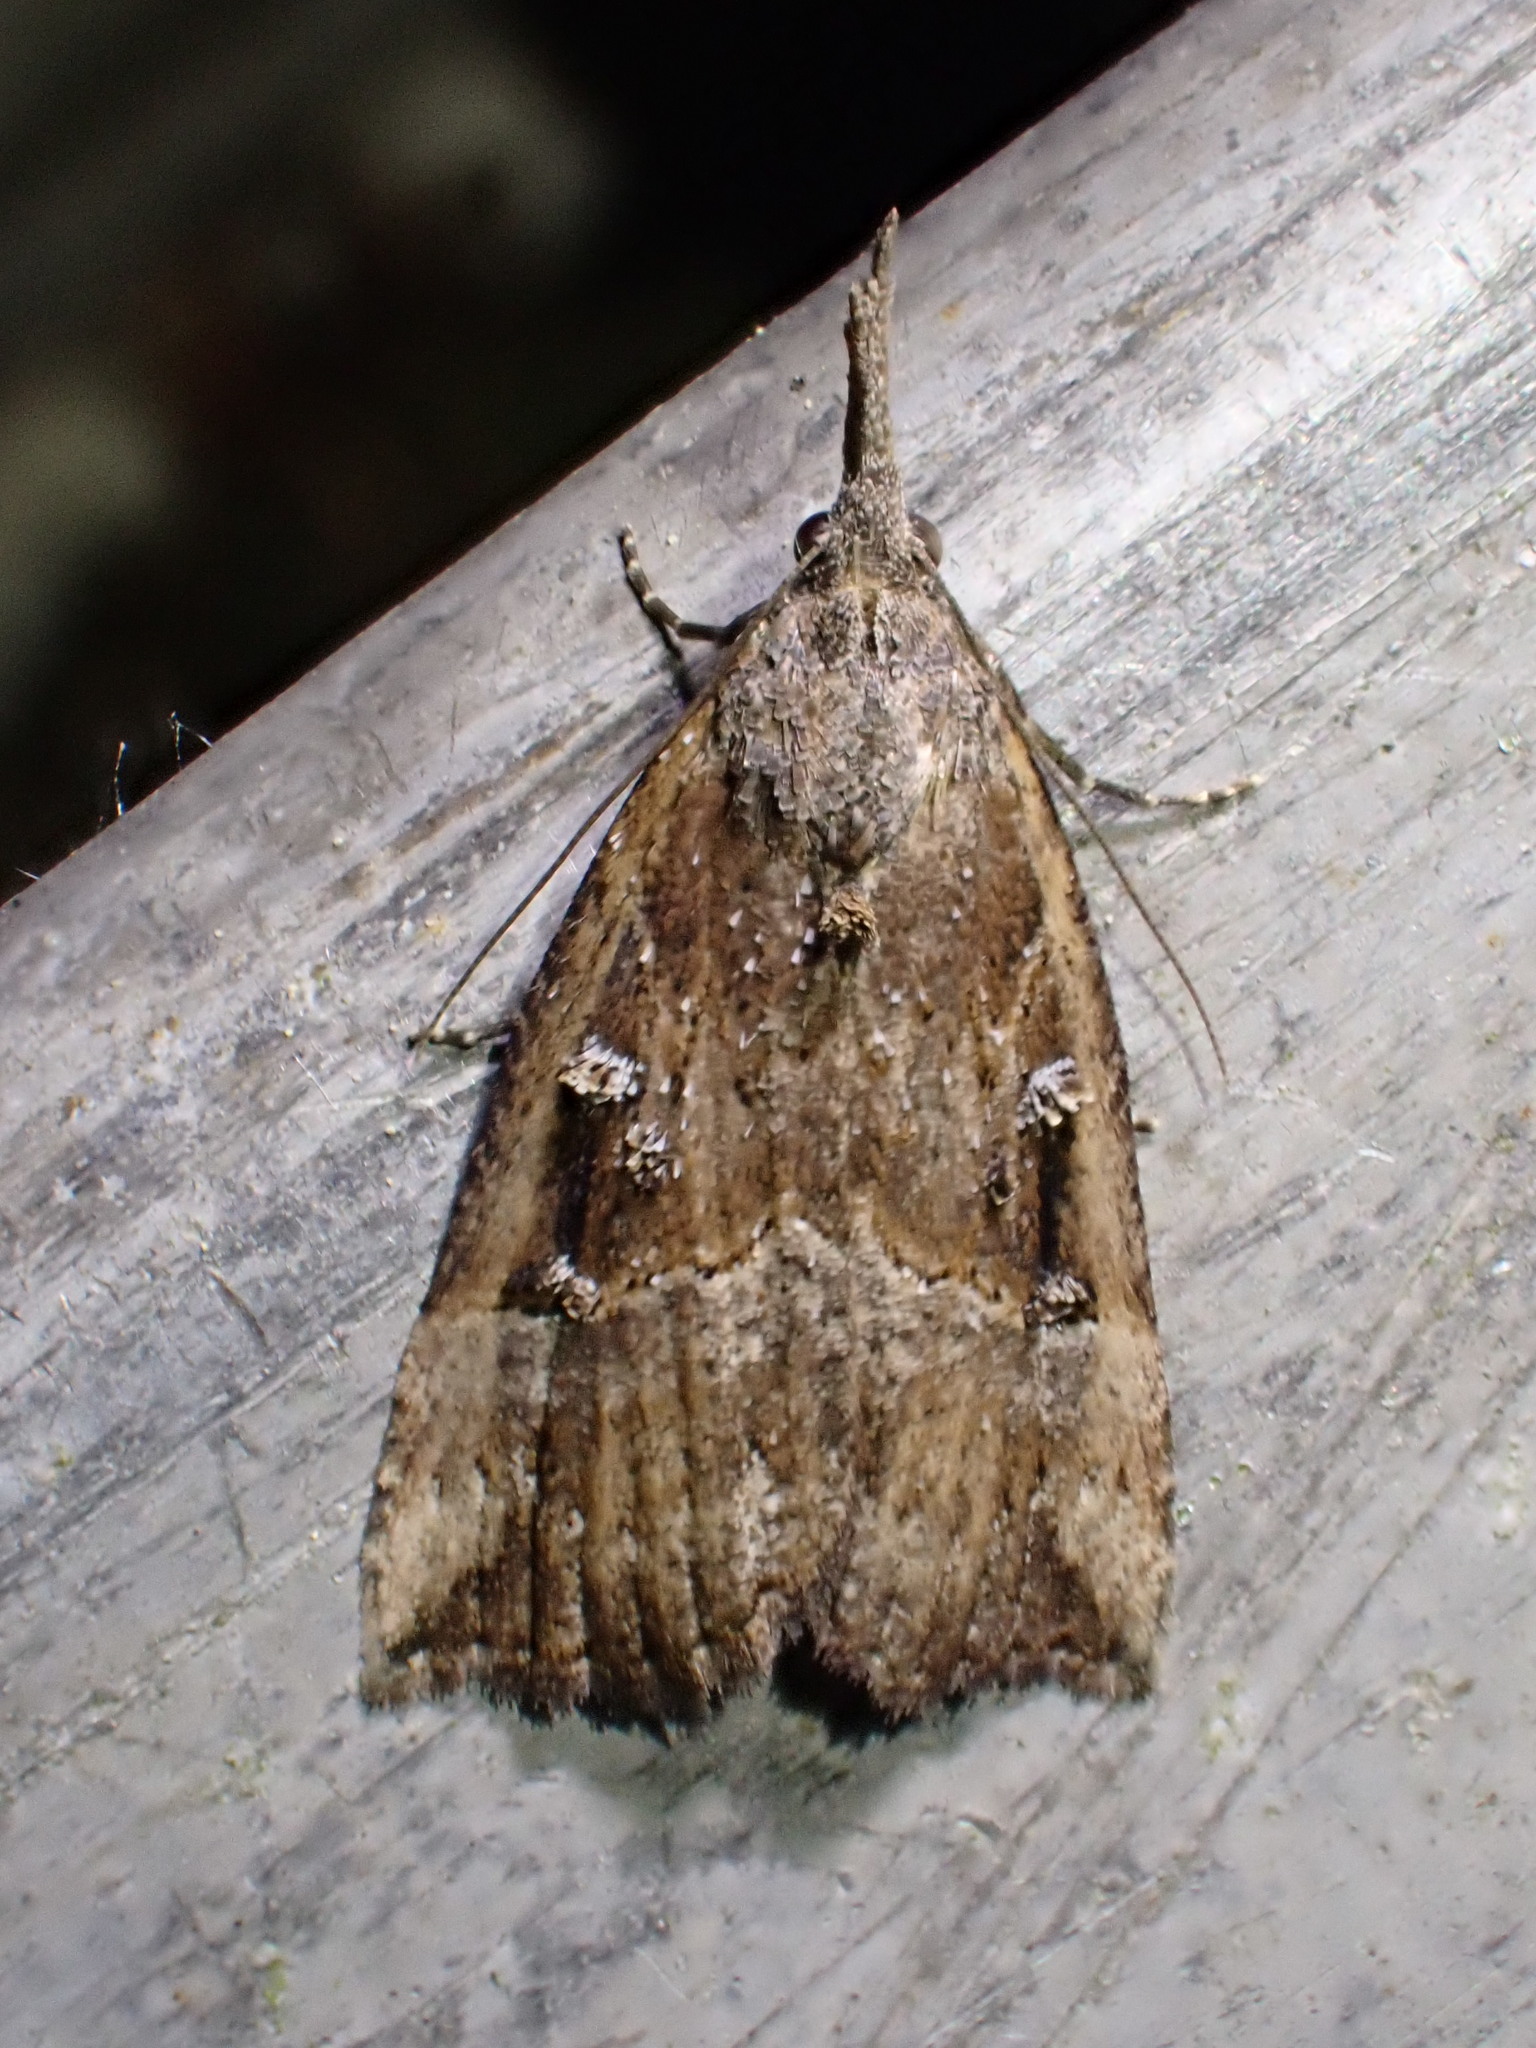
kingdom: Animalia
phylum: Arthropoda
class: Insecta
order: Lepidoptera
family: Erebidae
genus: Hypena
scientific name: Hypena rostralis
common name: Buttoned snout
